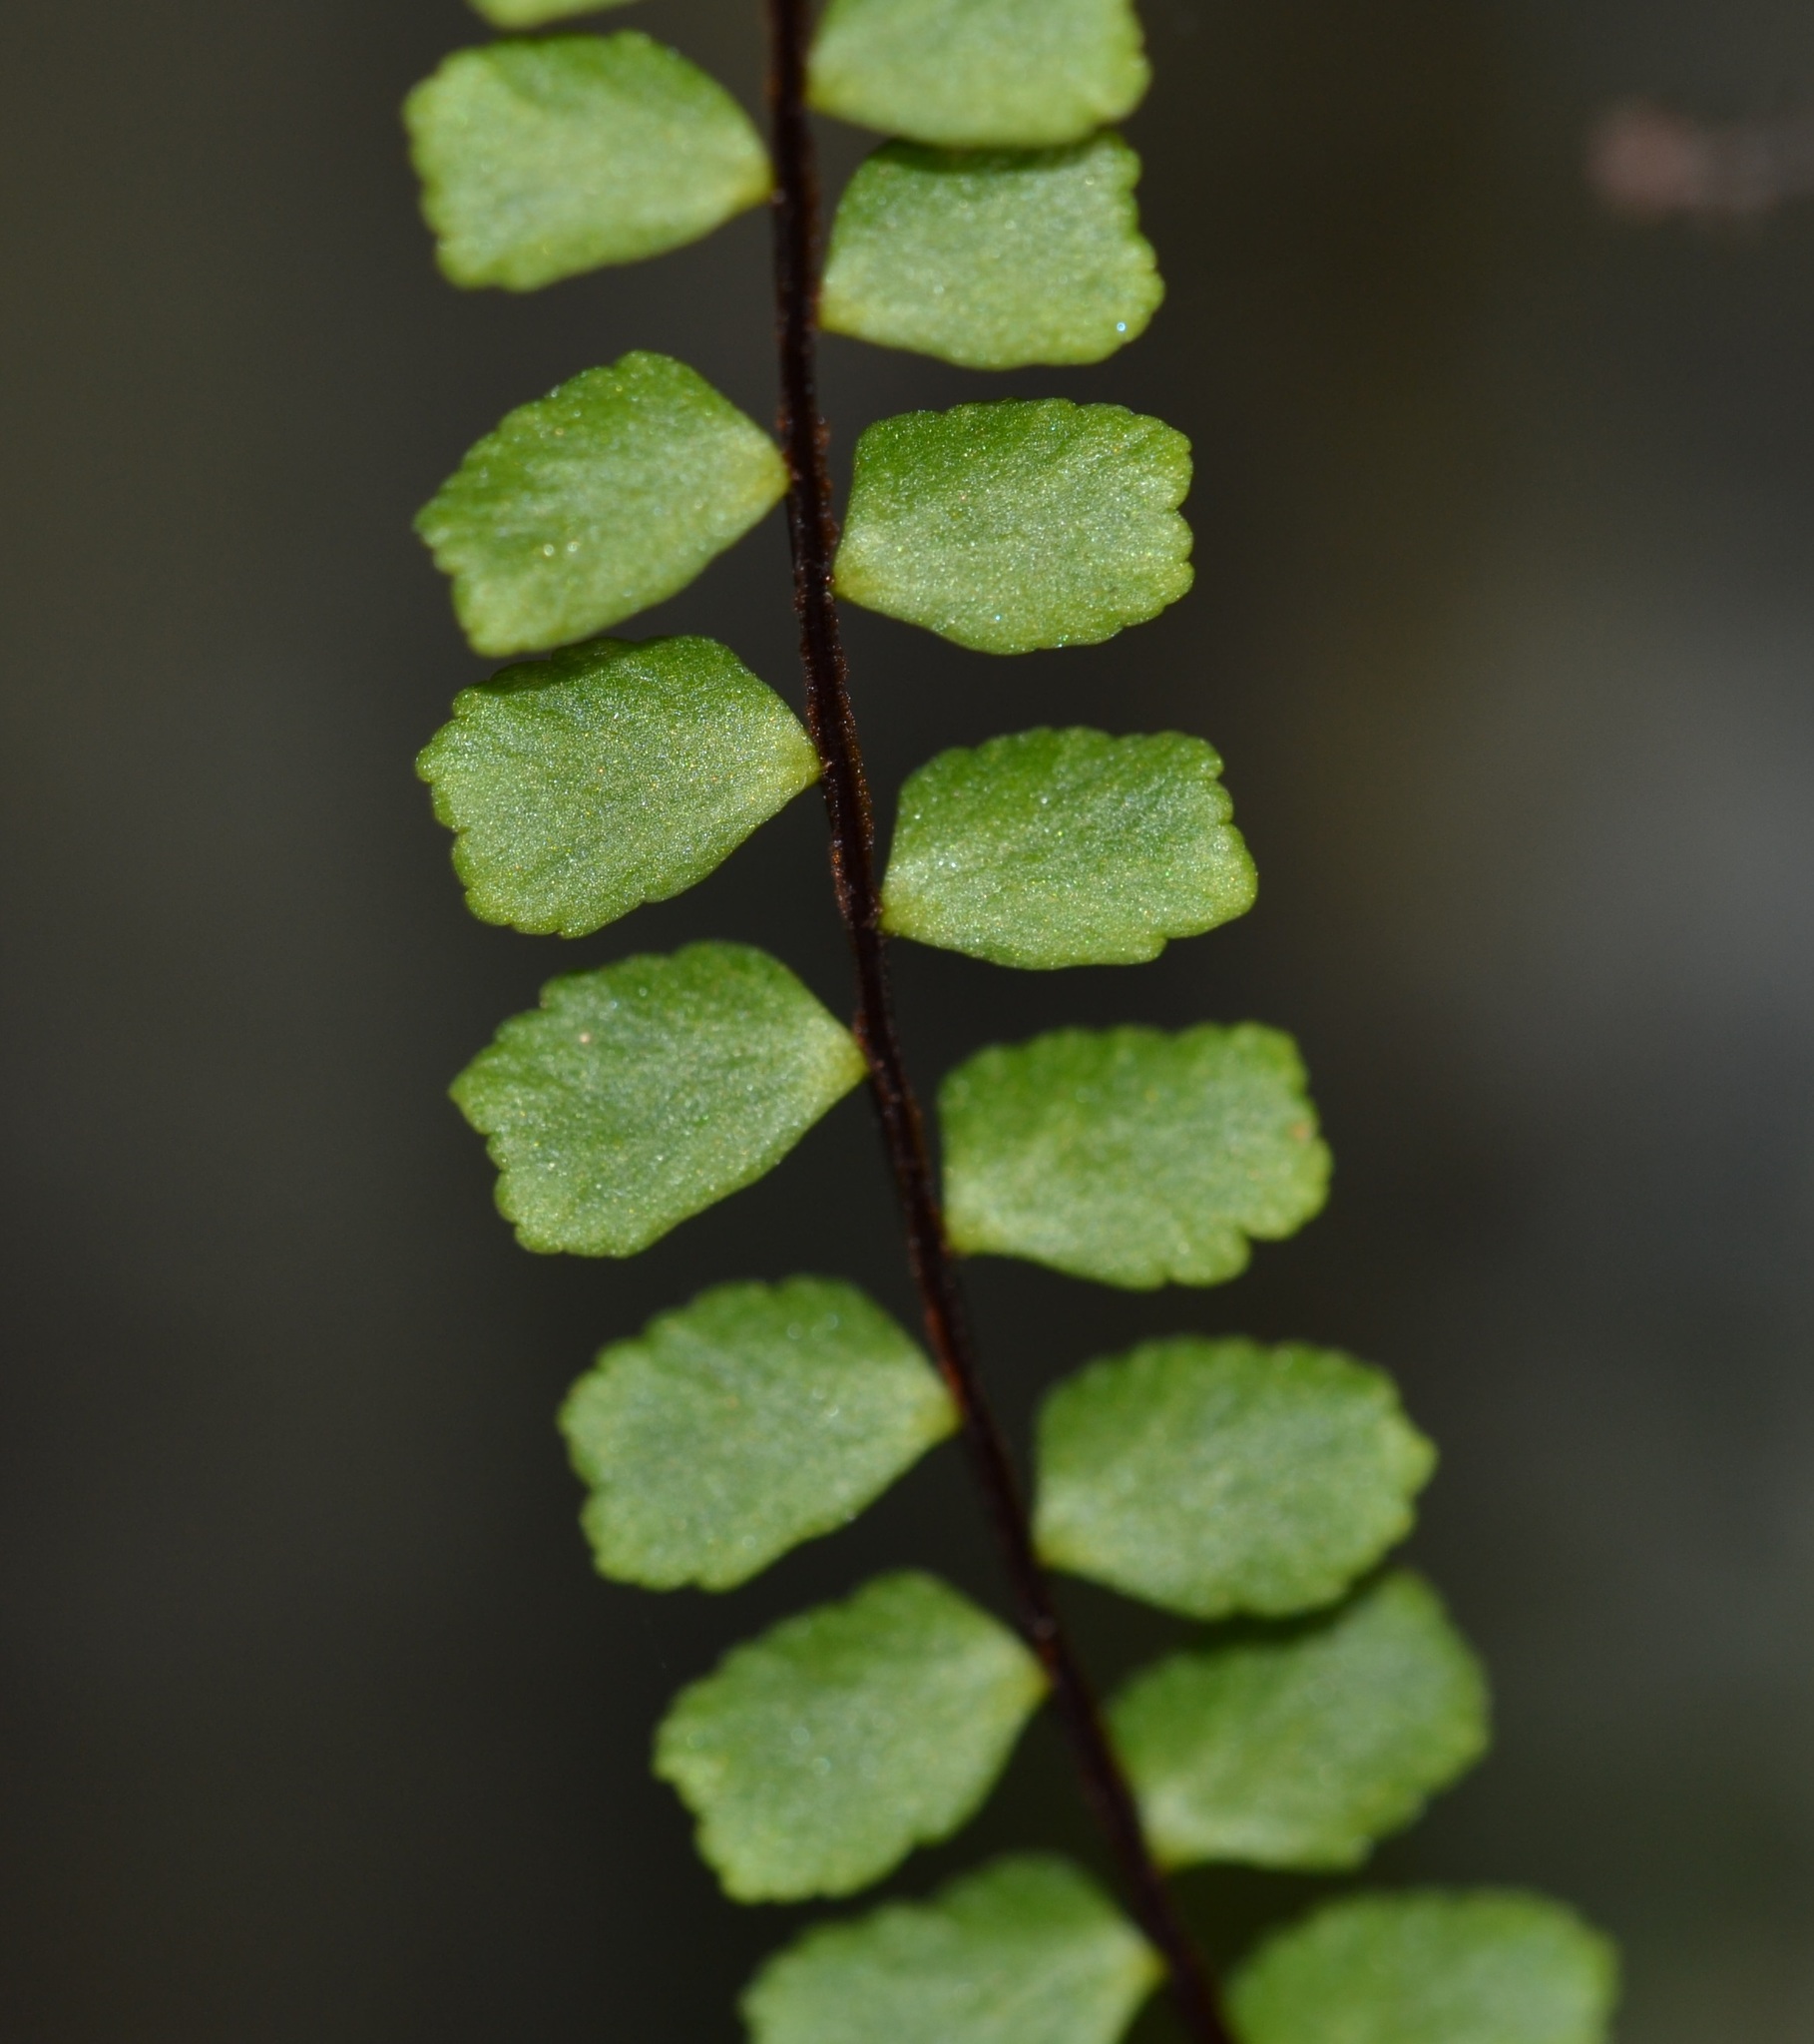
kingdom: Plantae
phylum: Tracheophyta
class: Polypodiopsida
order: Polypodiales
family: Aspleniaceae
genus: Asplenium
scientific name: Asplenium trichomanes
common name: Maidenhair spleenwort
